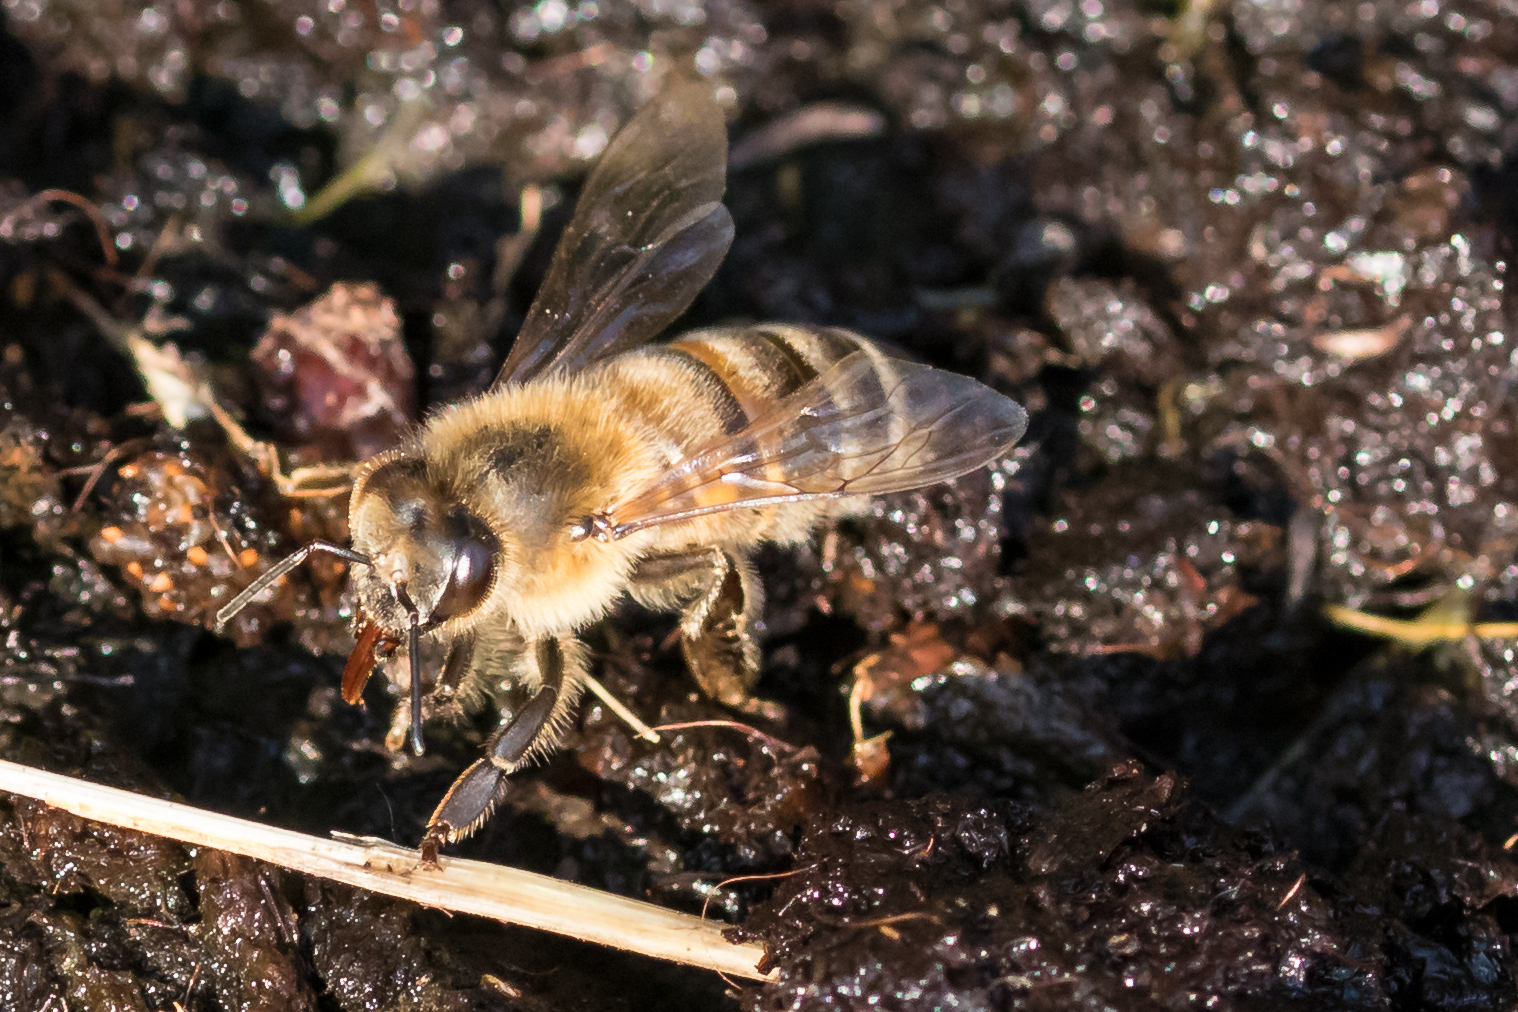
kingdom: Animalia
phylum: Arthropoda
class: Insecta
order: Hymenoptera
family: Apidae
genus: Apis
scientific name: Apis mellifera
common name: Honey bee
